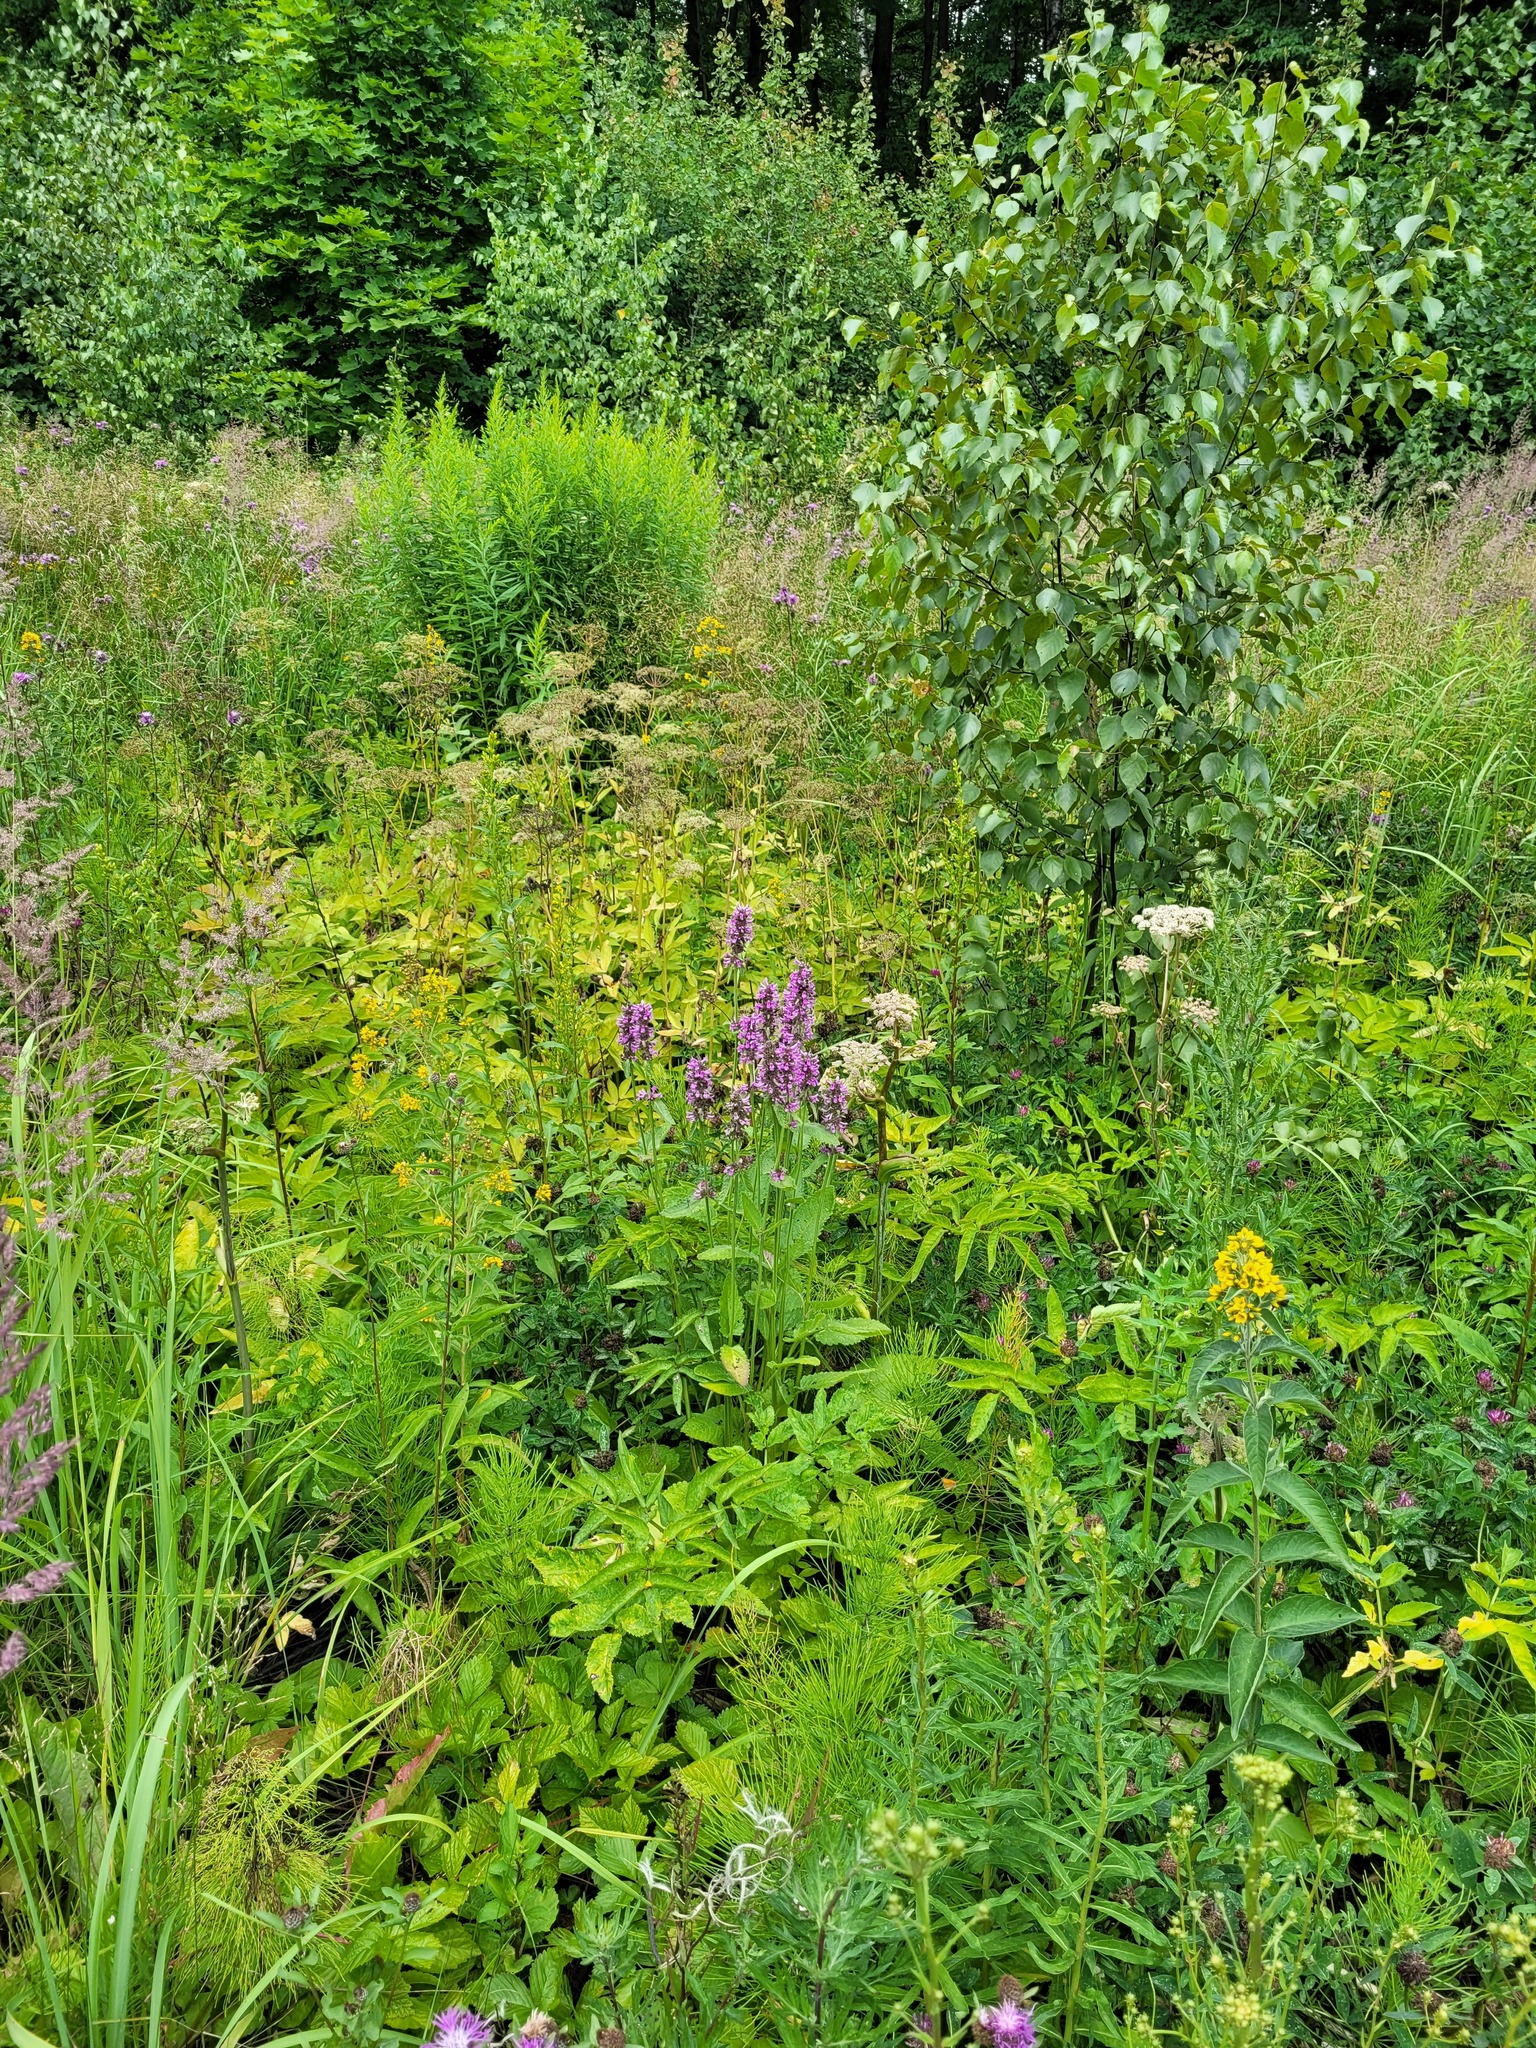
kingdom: Plantae
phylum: Tracheophyta
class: Magnoliopsida
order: Lamiales
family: Lamiaceae
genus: Betonica
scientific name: Betonica officinalis
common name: Bishop's-wort
